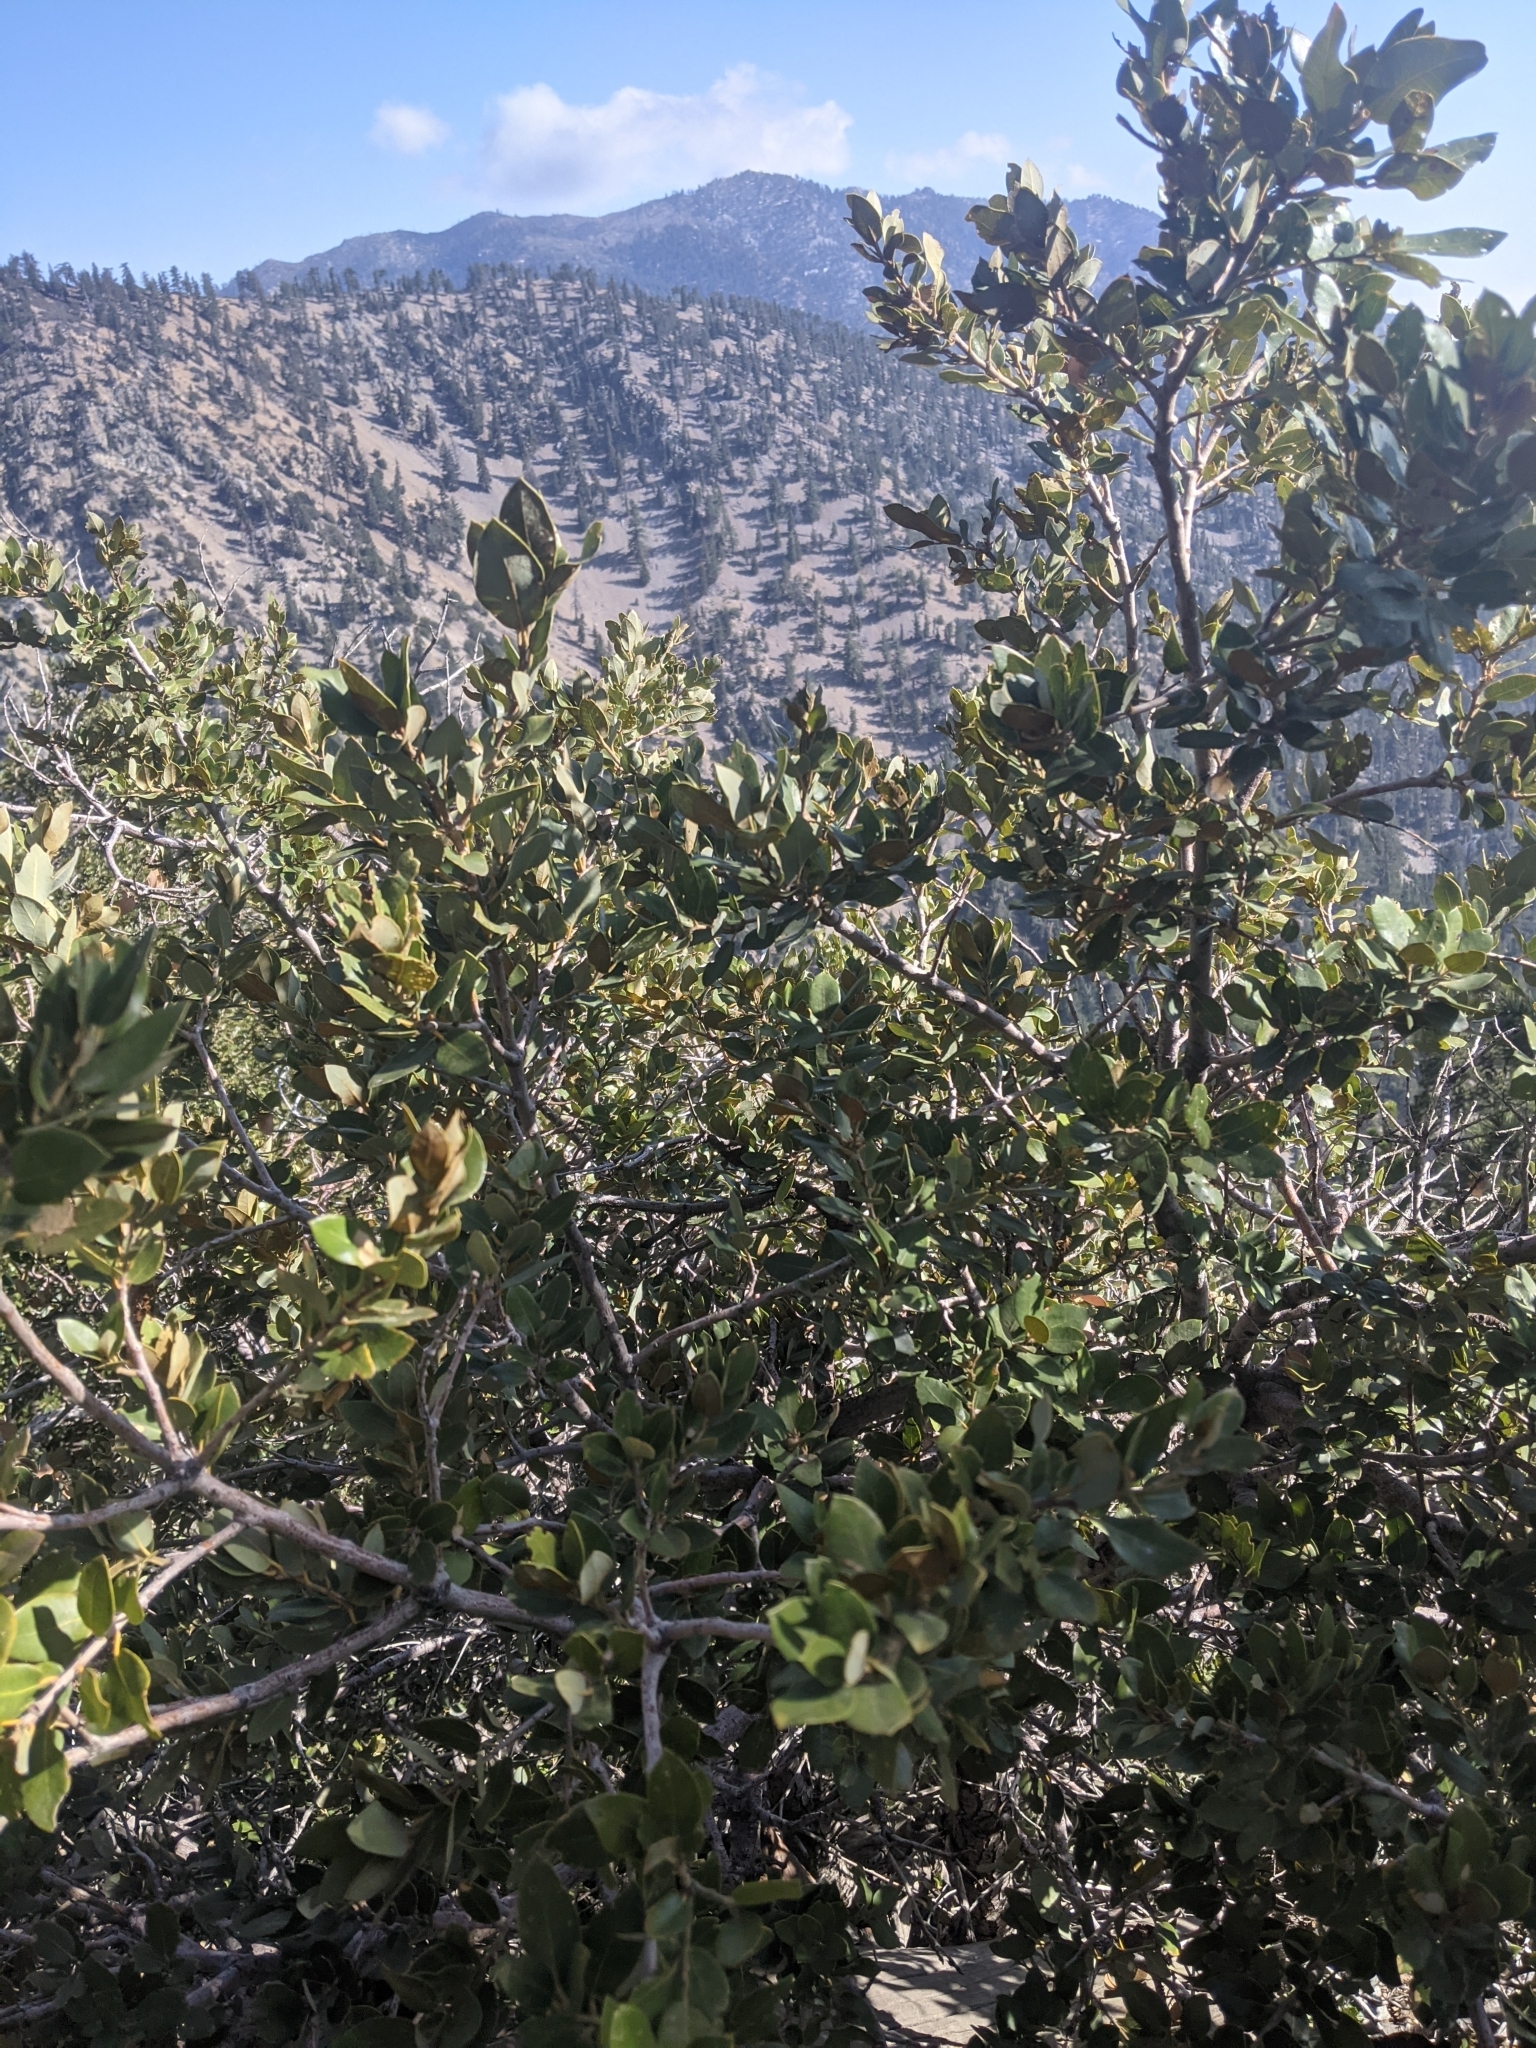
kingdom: Plantae
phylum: Tracheophyta
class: Magnoliopsida
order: Fagales
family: Fagaceae
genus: Quercus
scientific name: Quercus chrysolepis
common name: Canyon live oak
